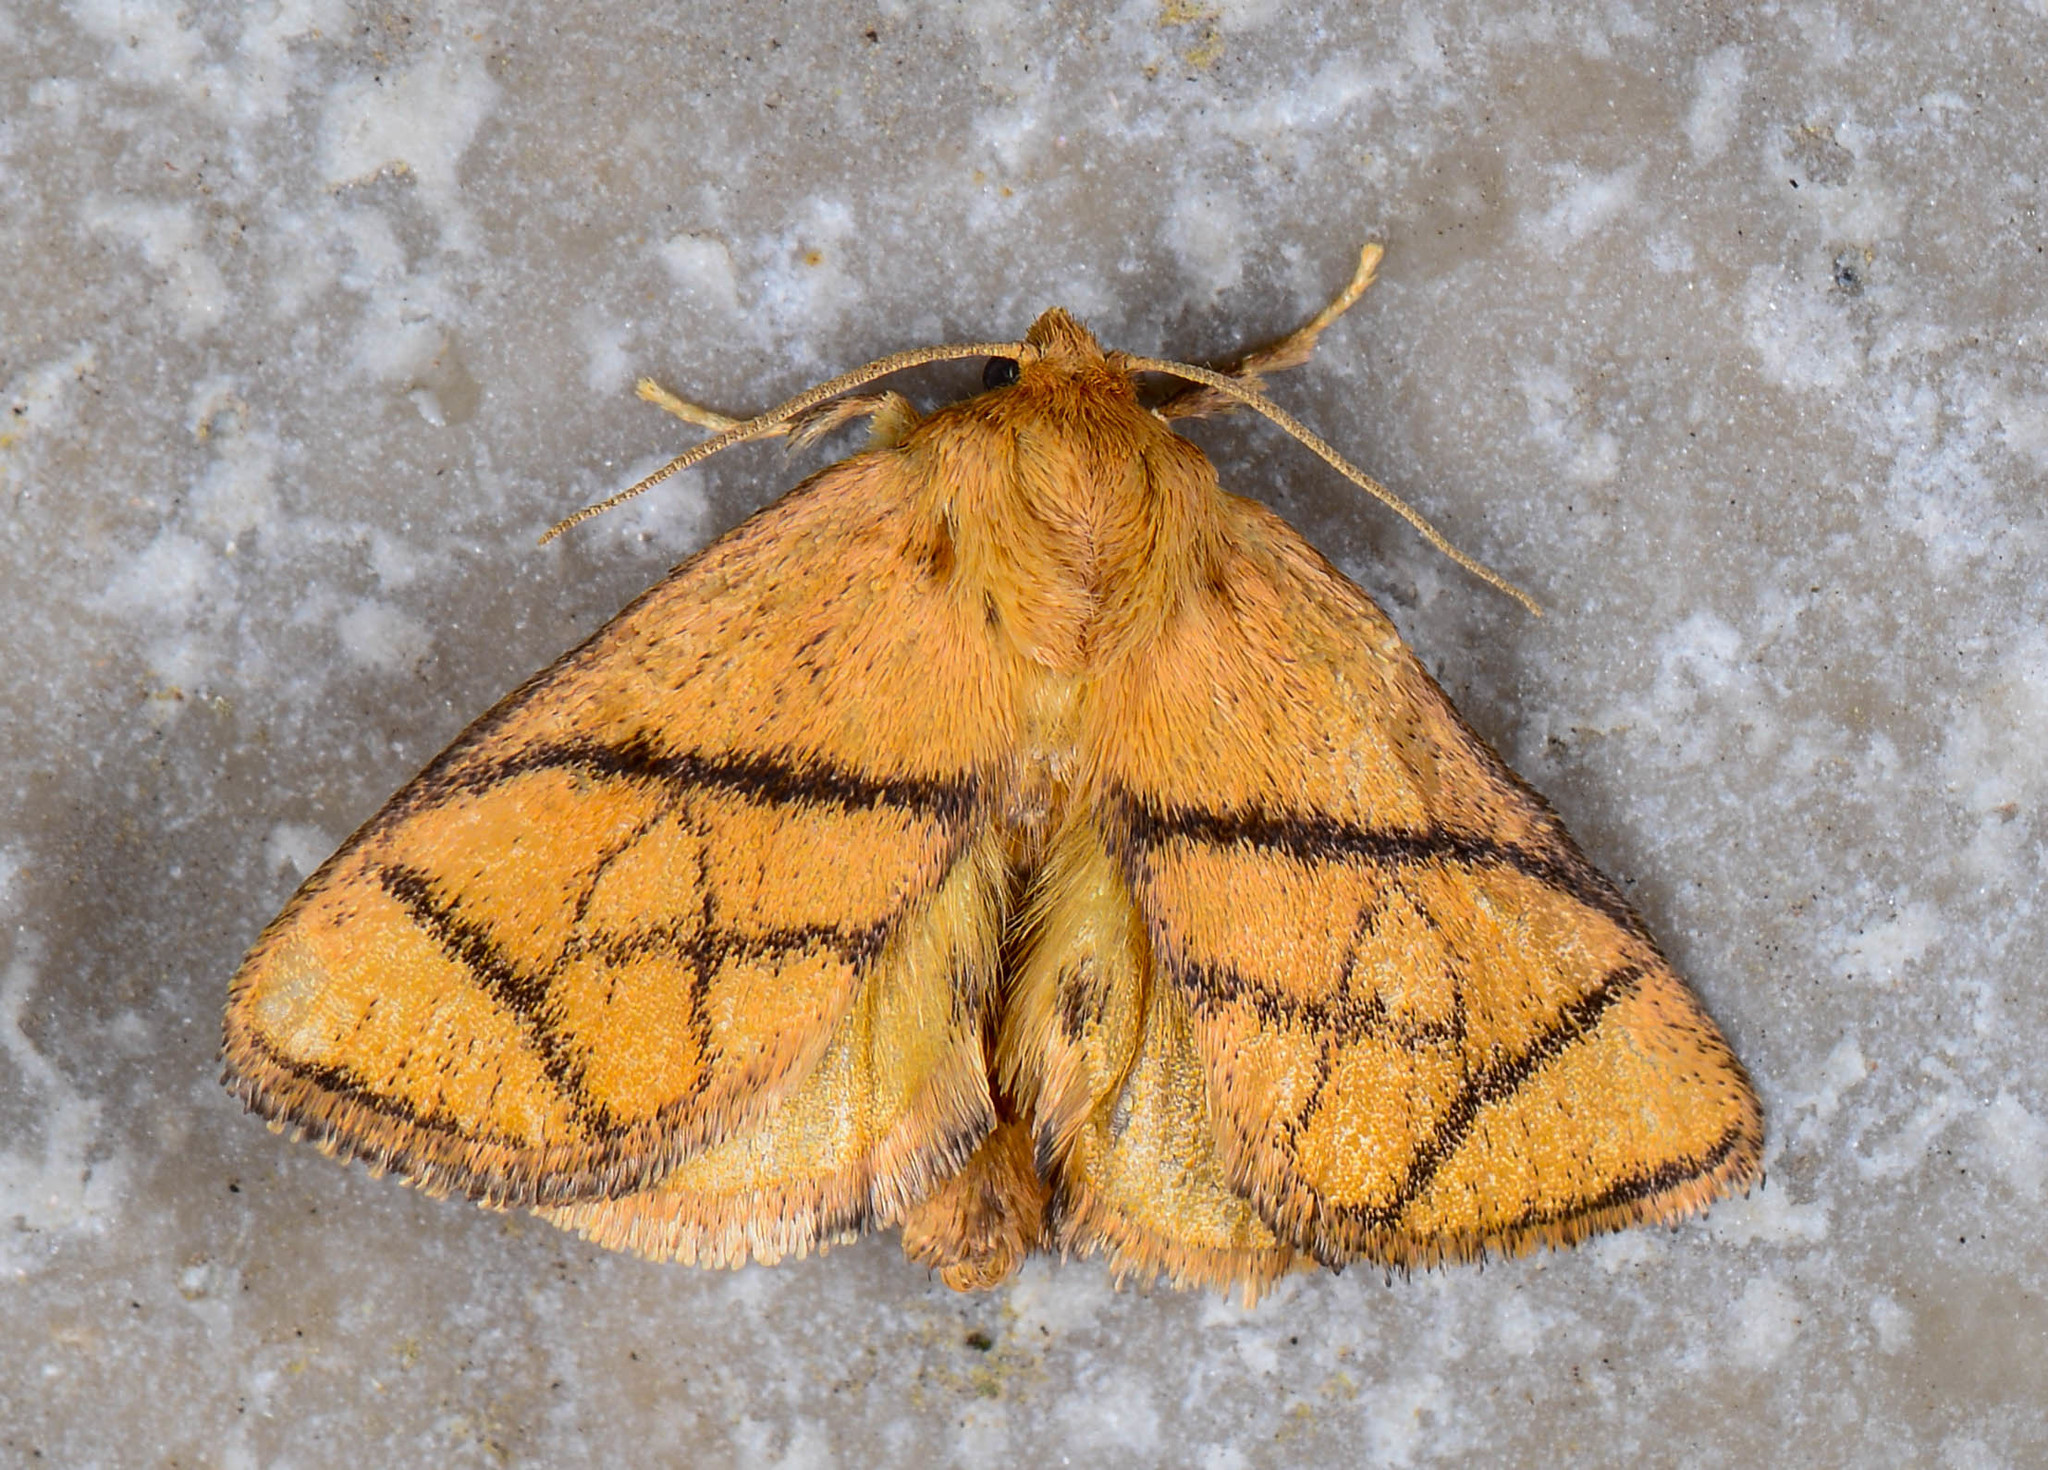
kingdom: Animalia
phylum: Arthropoda
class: Insecta
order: Lepidoptera
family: Limacodidae
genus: Apoda
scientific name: Apoda y-inversa
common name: Yellow-collared slug moth
